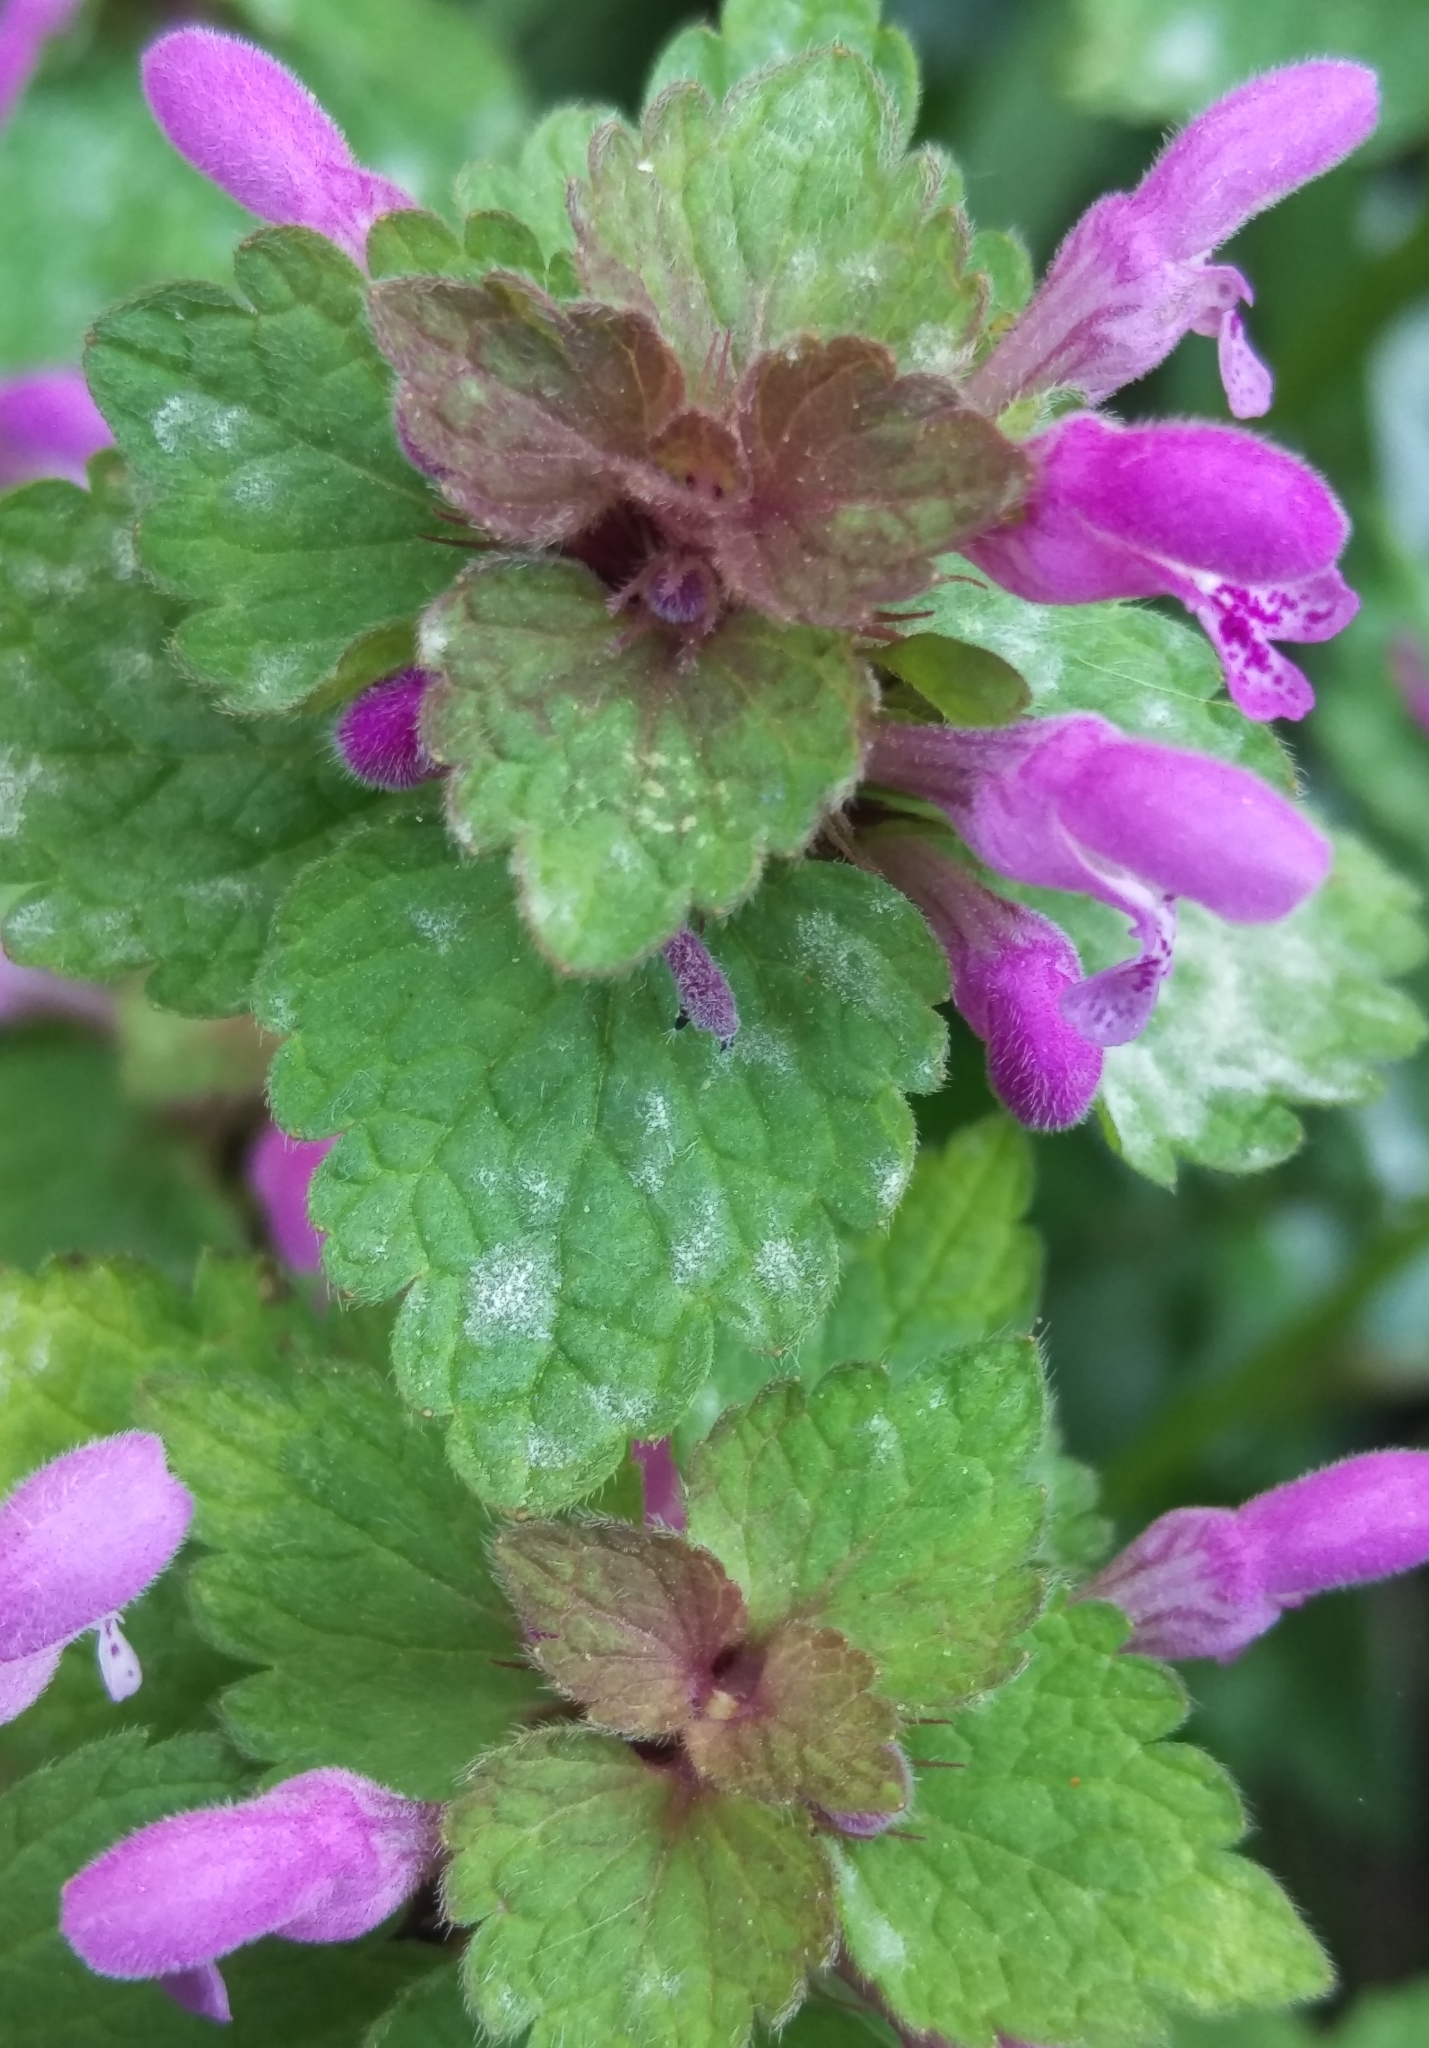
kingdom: Fungi
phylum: Ascomycota
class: Leotiomycetes
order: Helotiales
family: Erysiphaceae
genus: Neoerysiphe
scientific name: Neoerysiphe galeopsidis
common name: Mint mildew
